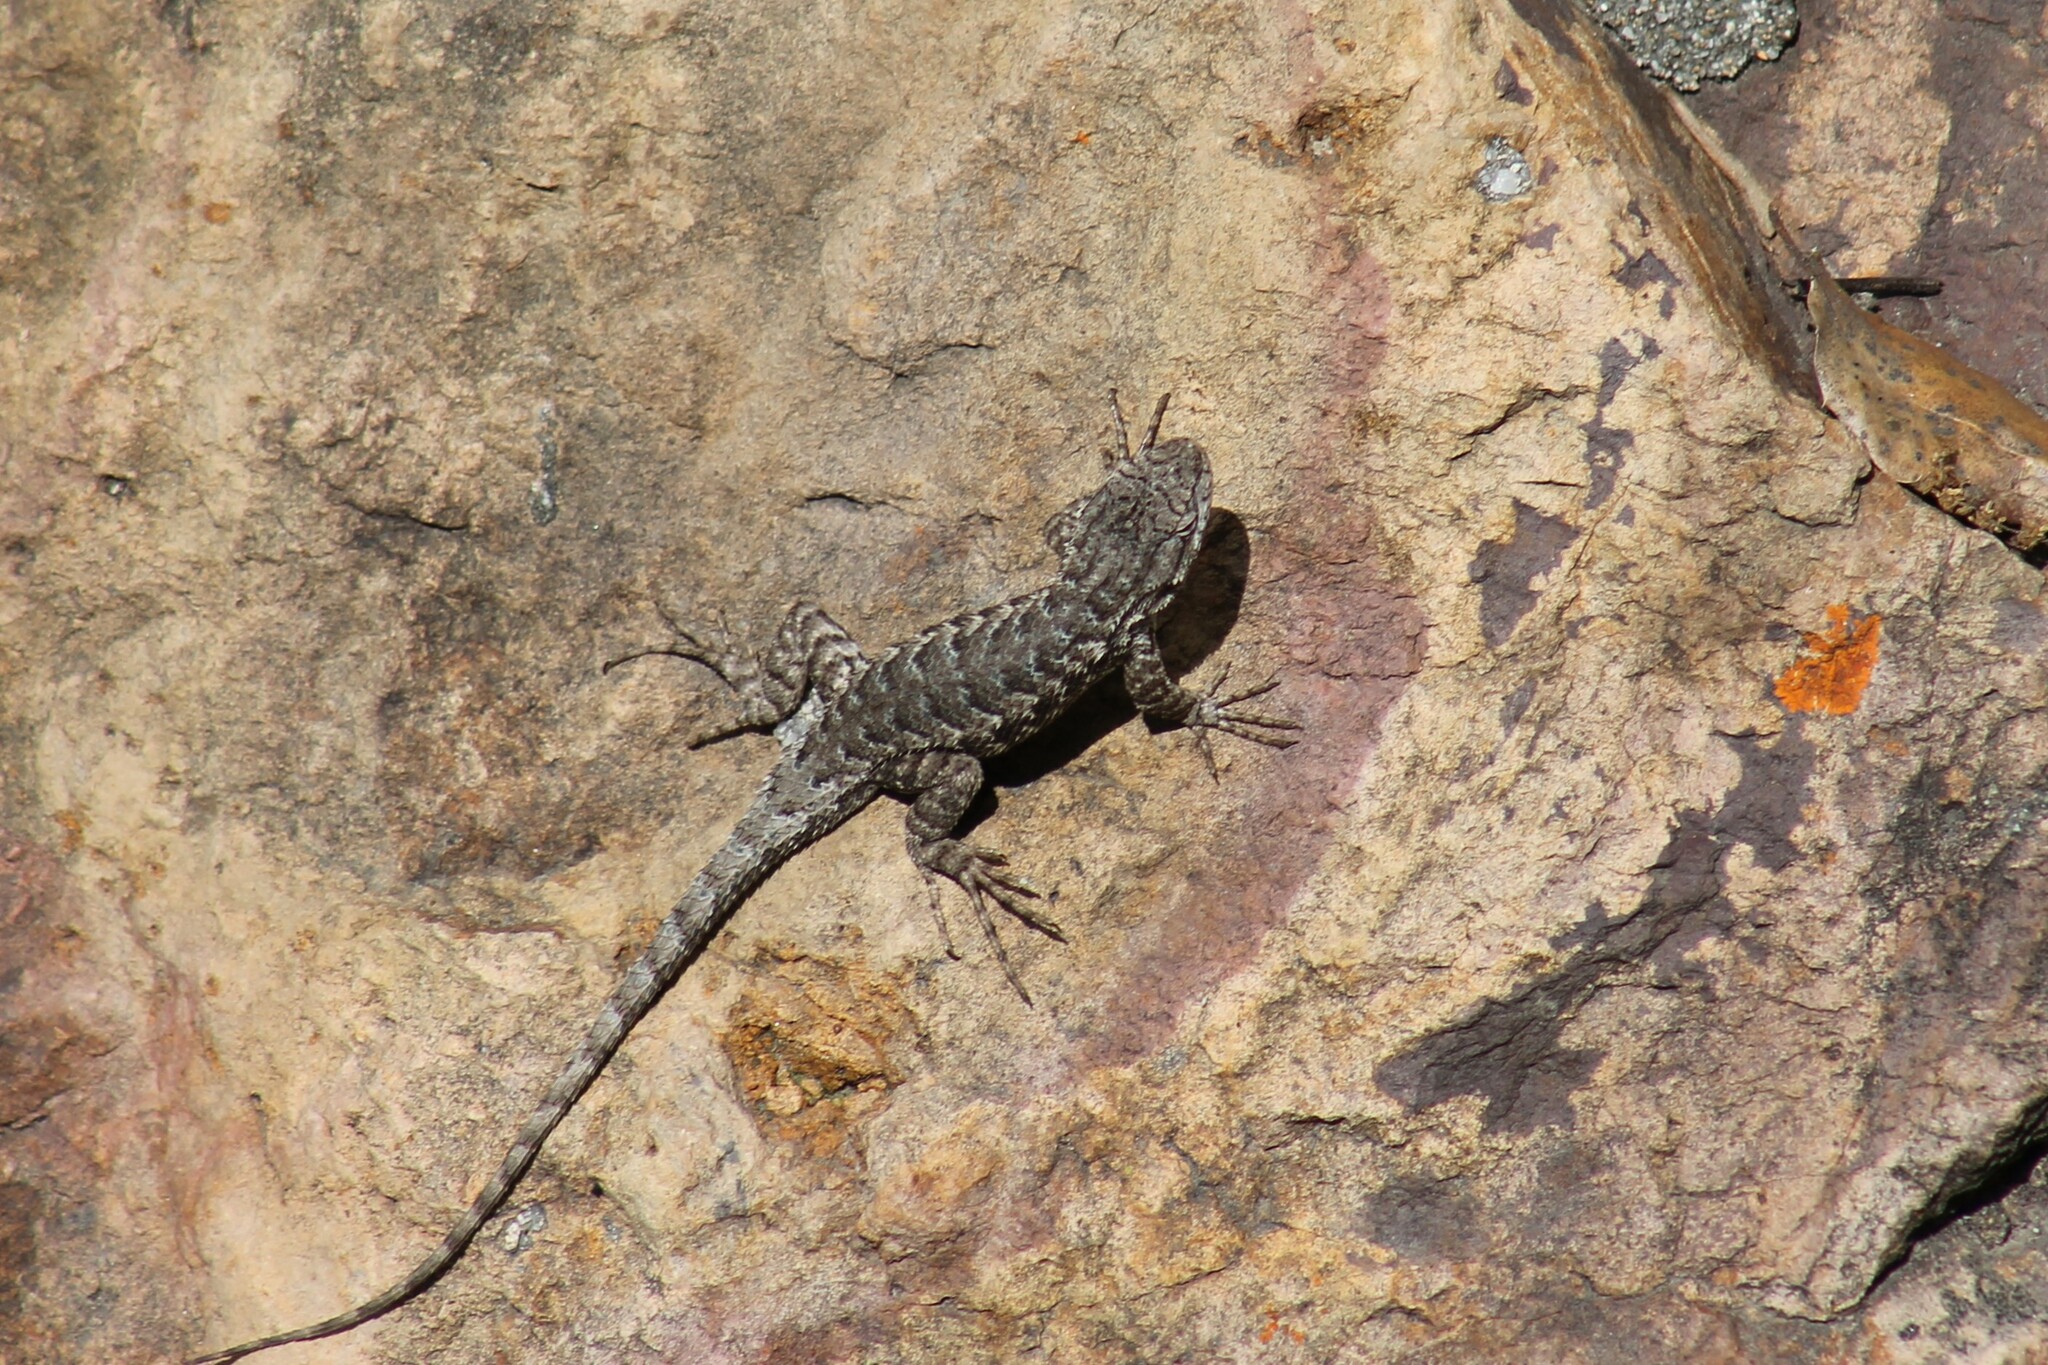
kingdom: Animalia
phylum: Chordata
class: Squamata
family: Phrynosomatidae
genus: Sceloporus
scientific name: Sceloporus occidentalis
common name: Western fence lizard
